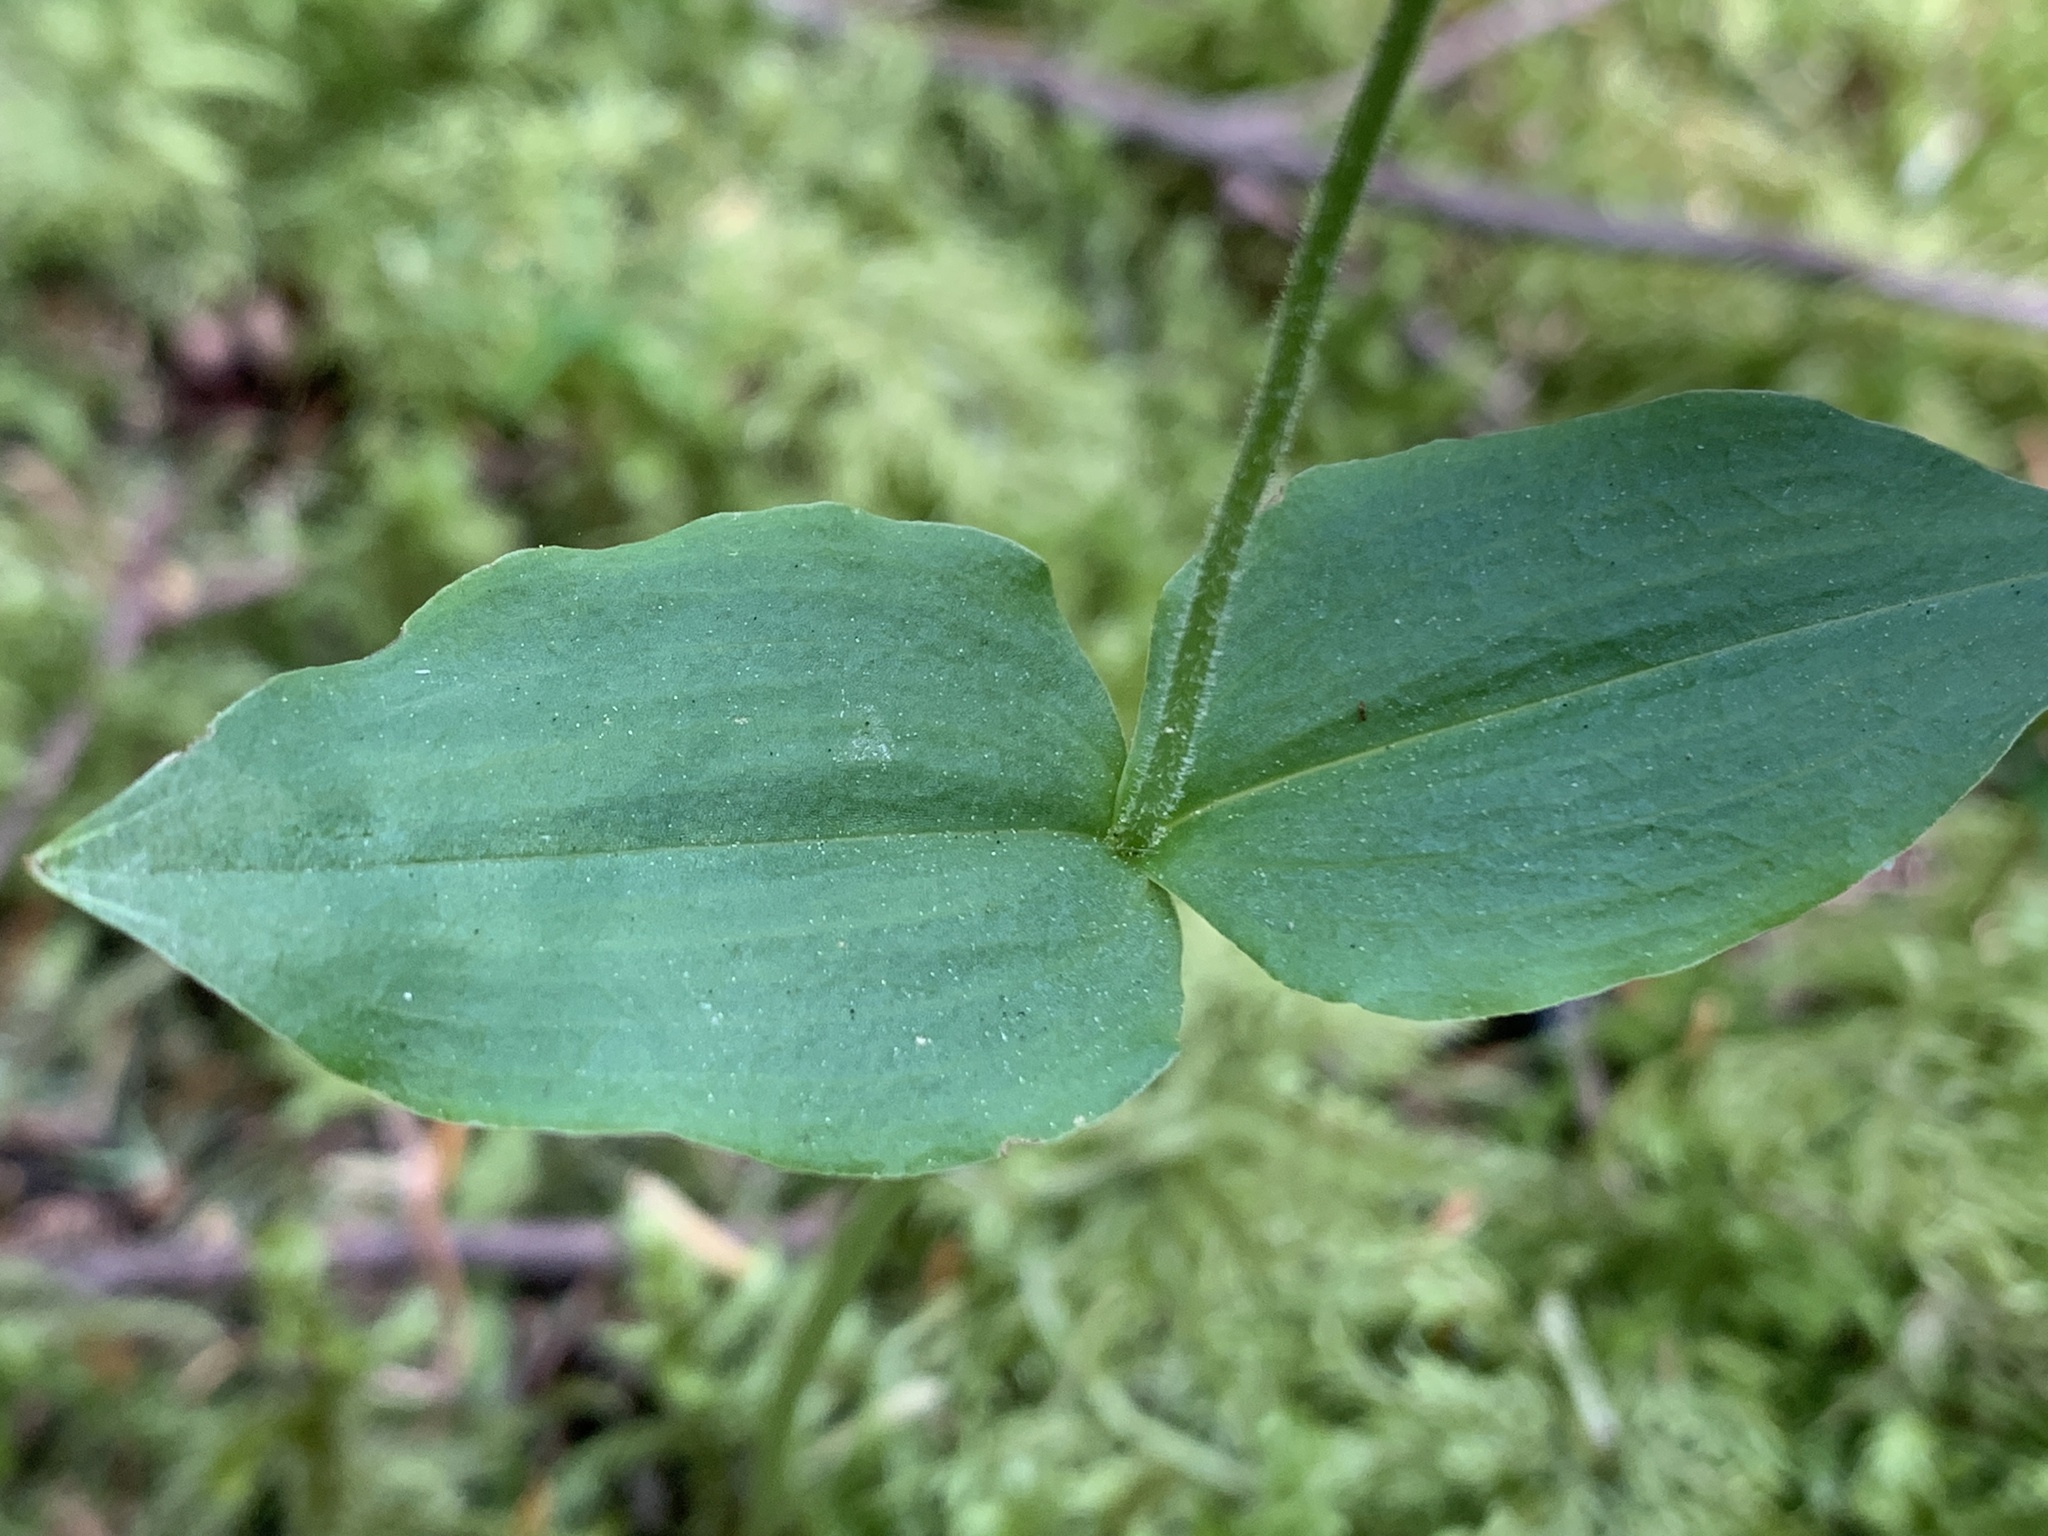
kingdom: Plantae
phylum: Tracheophyta
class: Liliopsida
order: Asparagales
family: Orchidaceae
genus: Neottia
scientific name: Neottia banksiana
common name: Northwestern twayblade
